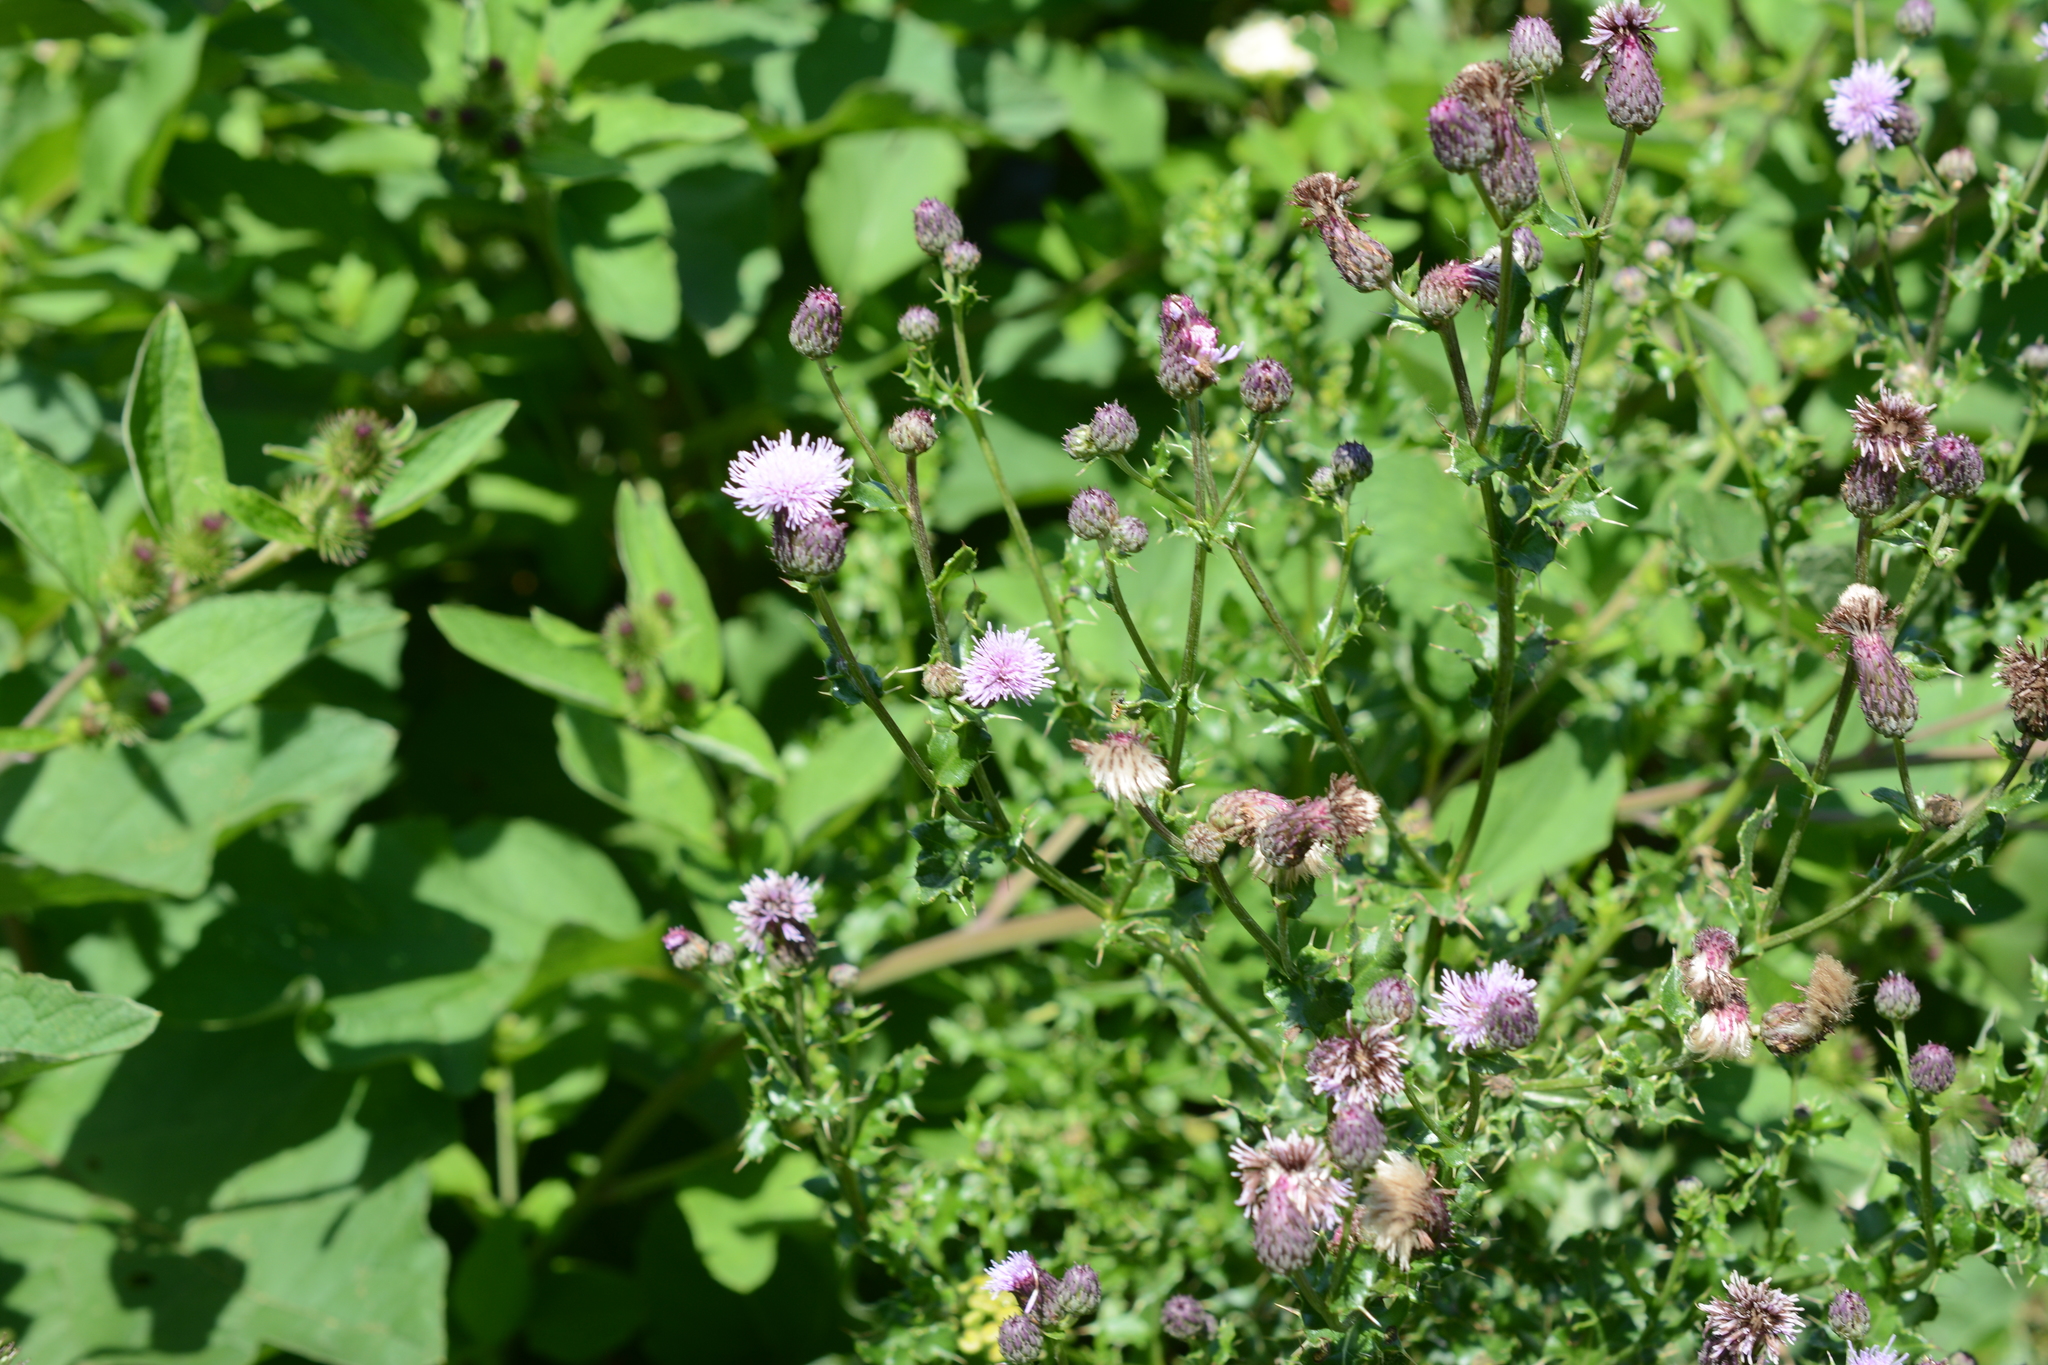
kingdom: Plantae
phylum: Tracheophyta
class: Magnoliopsida
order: Asterales
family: Asteraceae
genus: Cirsium
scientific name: Cirsium arvense
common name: Creeping thistle
